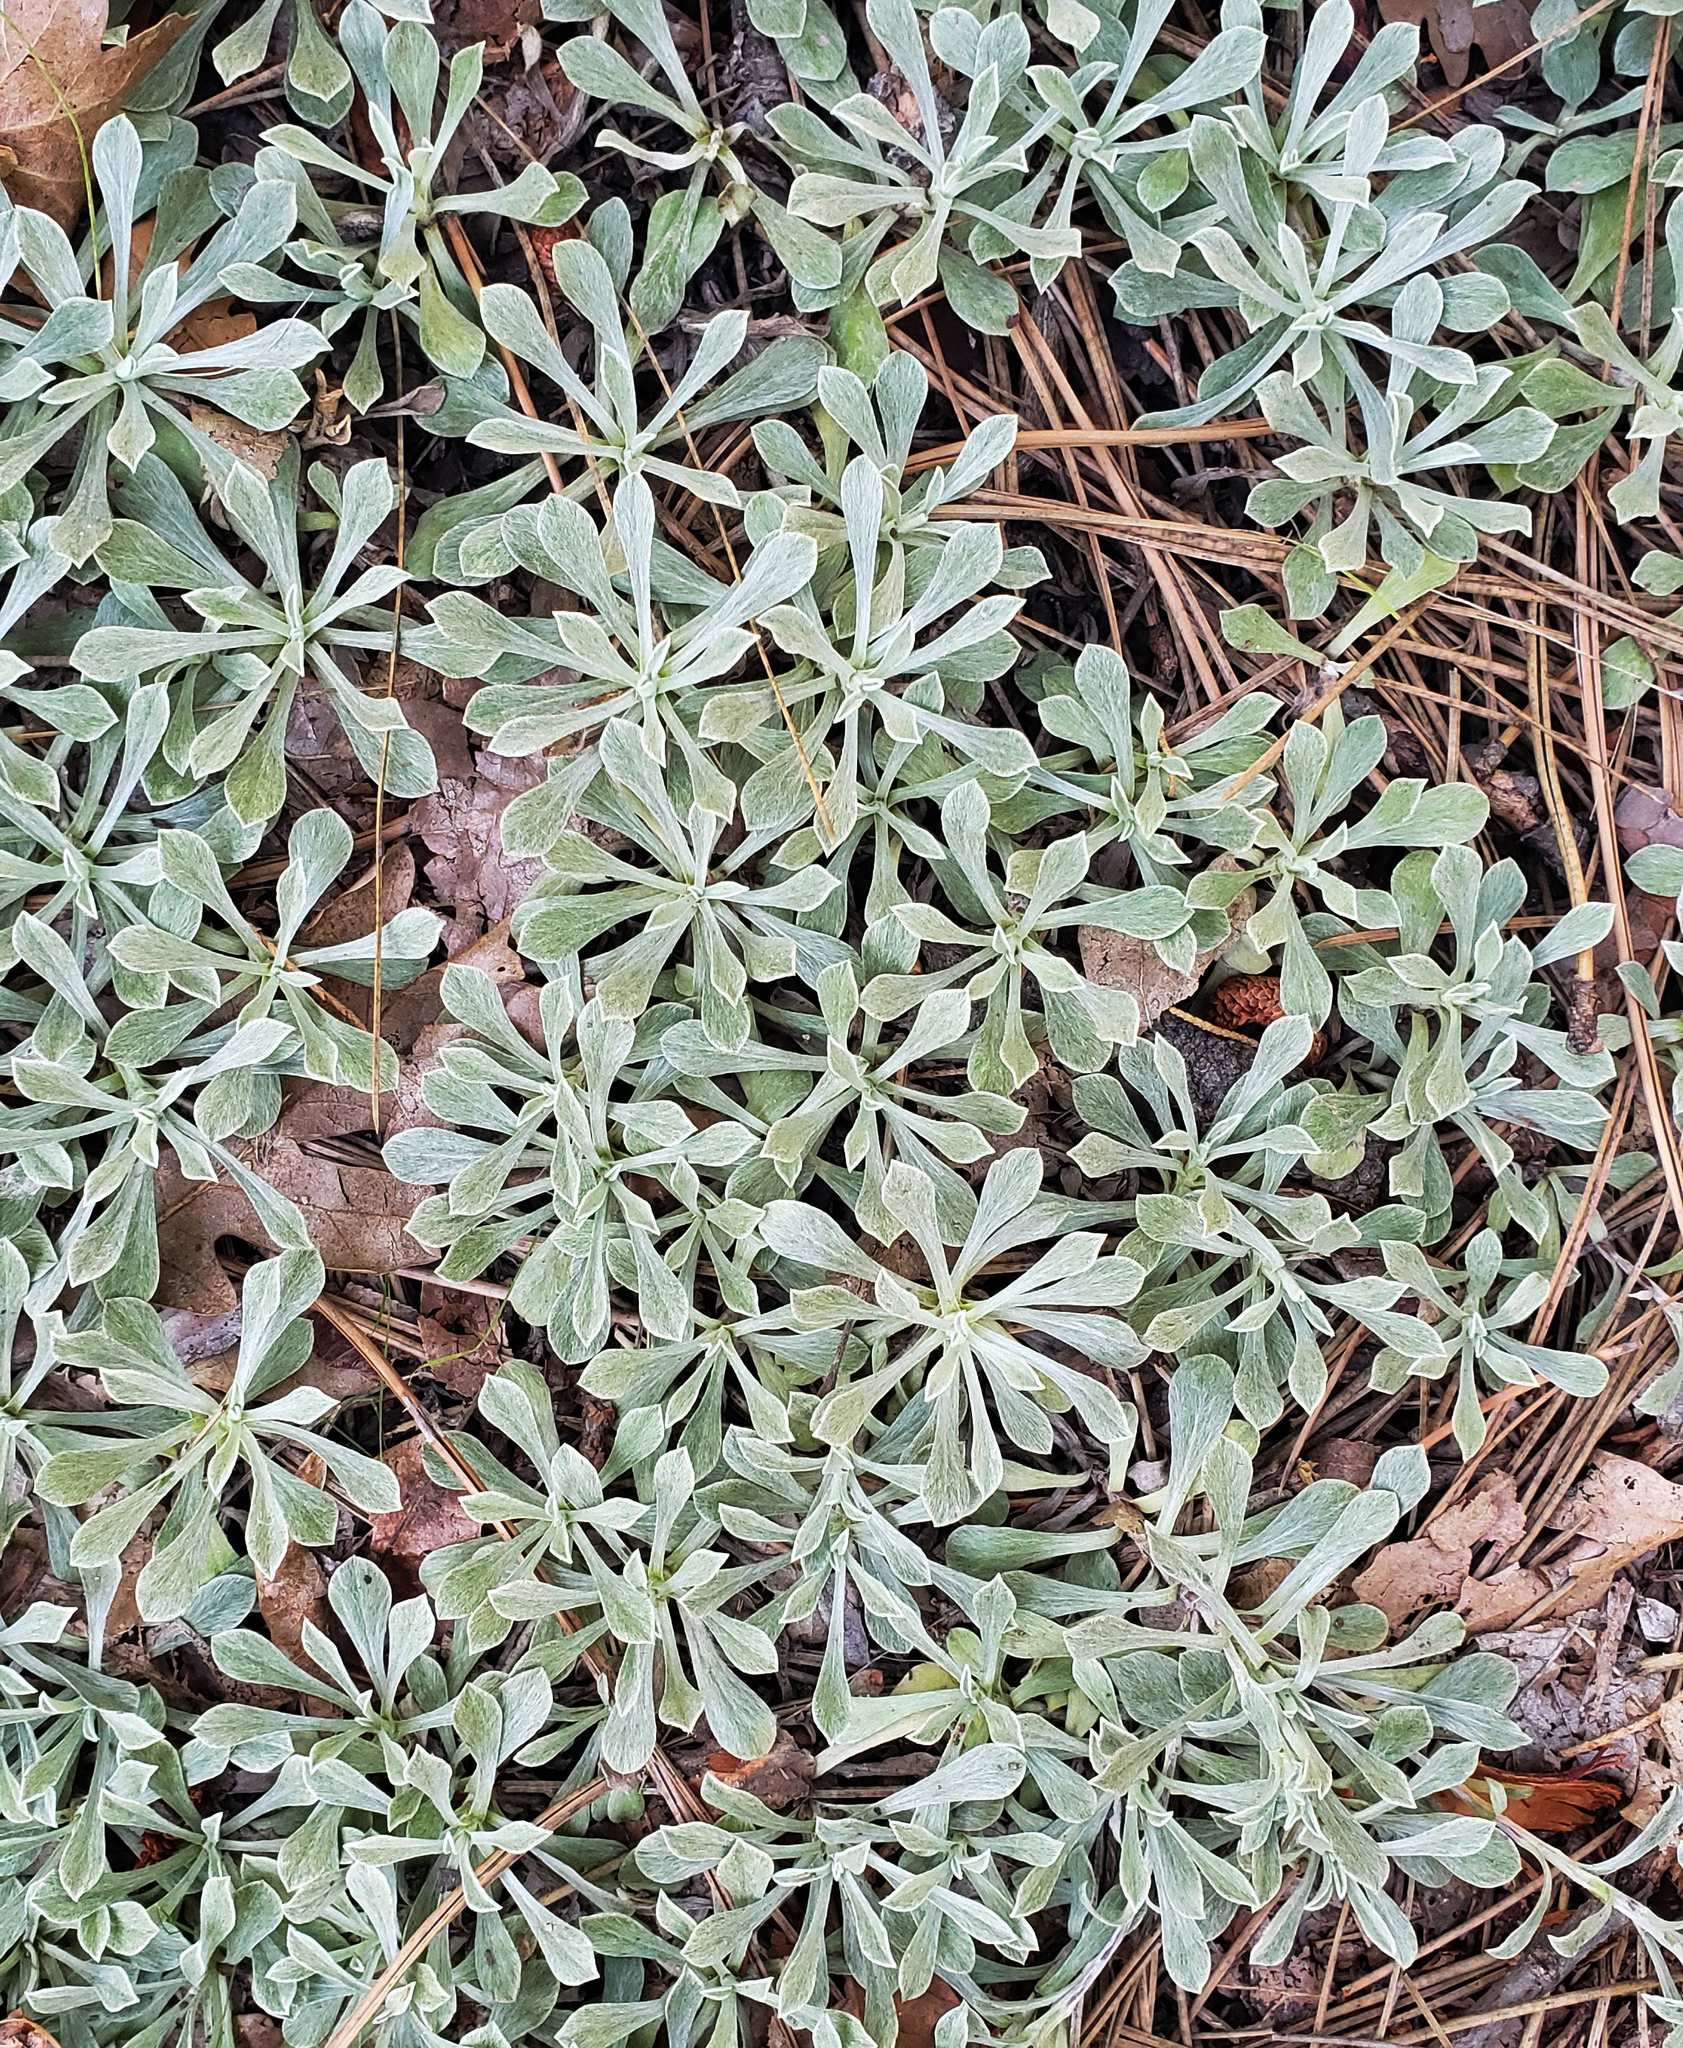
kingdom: Plantae
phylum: Tracheophyta
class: Magnoliopsida
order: Asterales
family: Asteraceae
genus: Antennaria
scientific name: Antennaria parvifolia
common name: Nuttall's pussytoes
